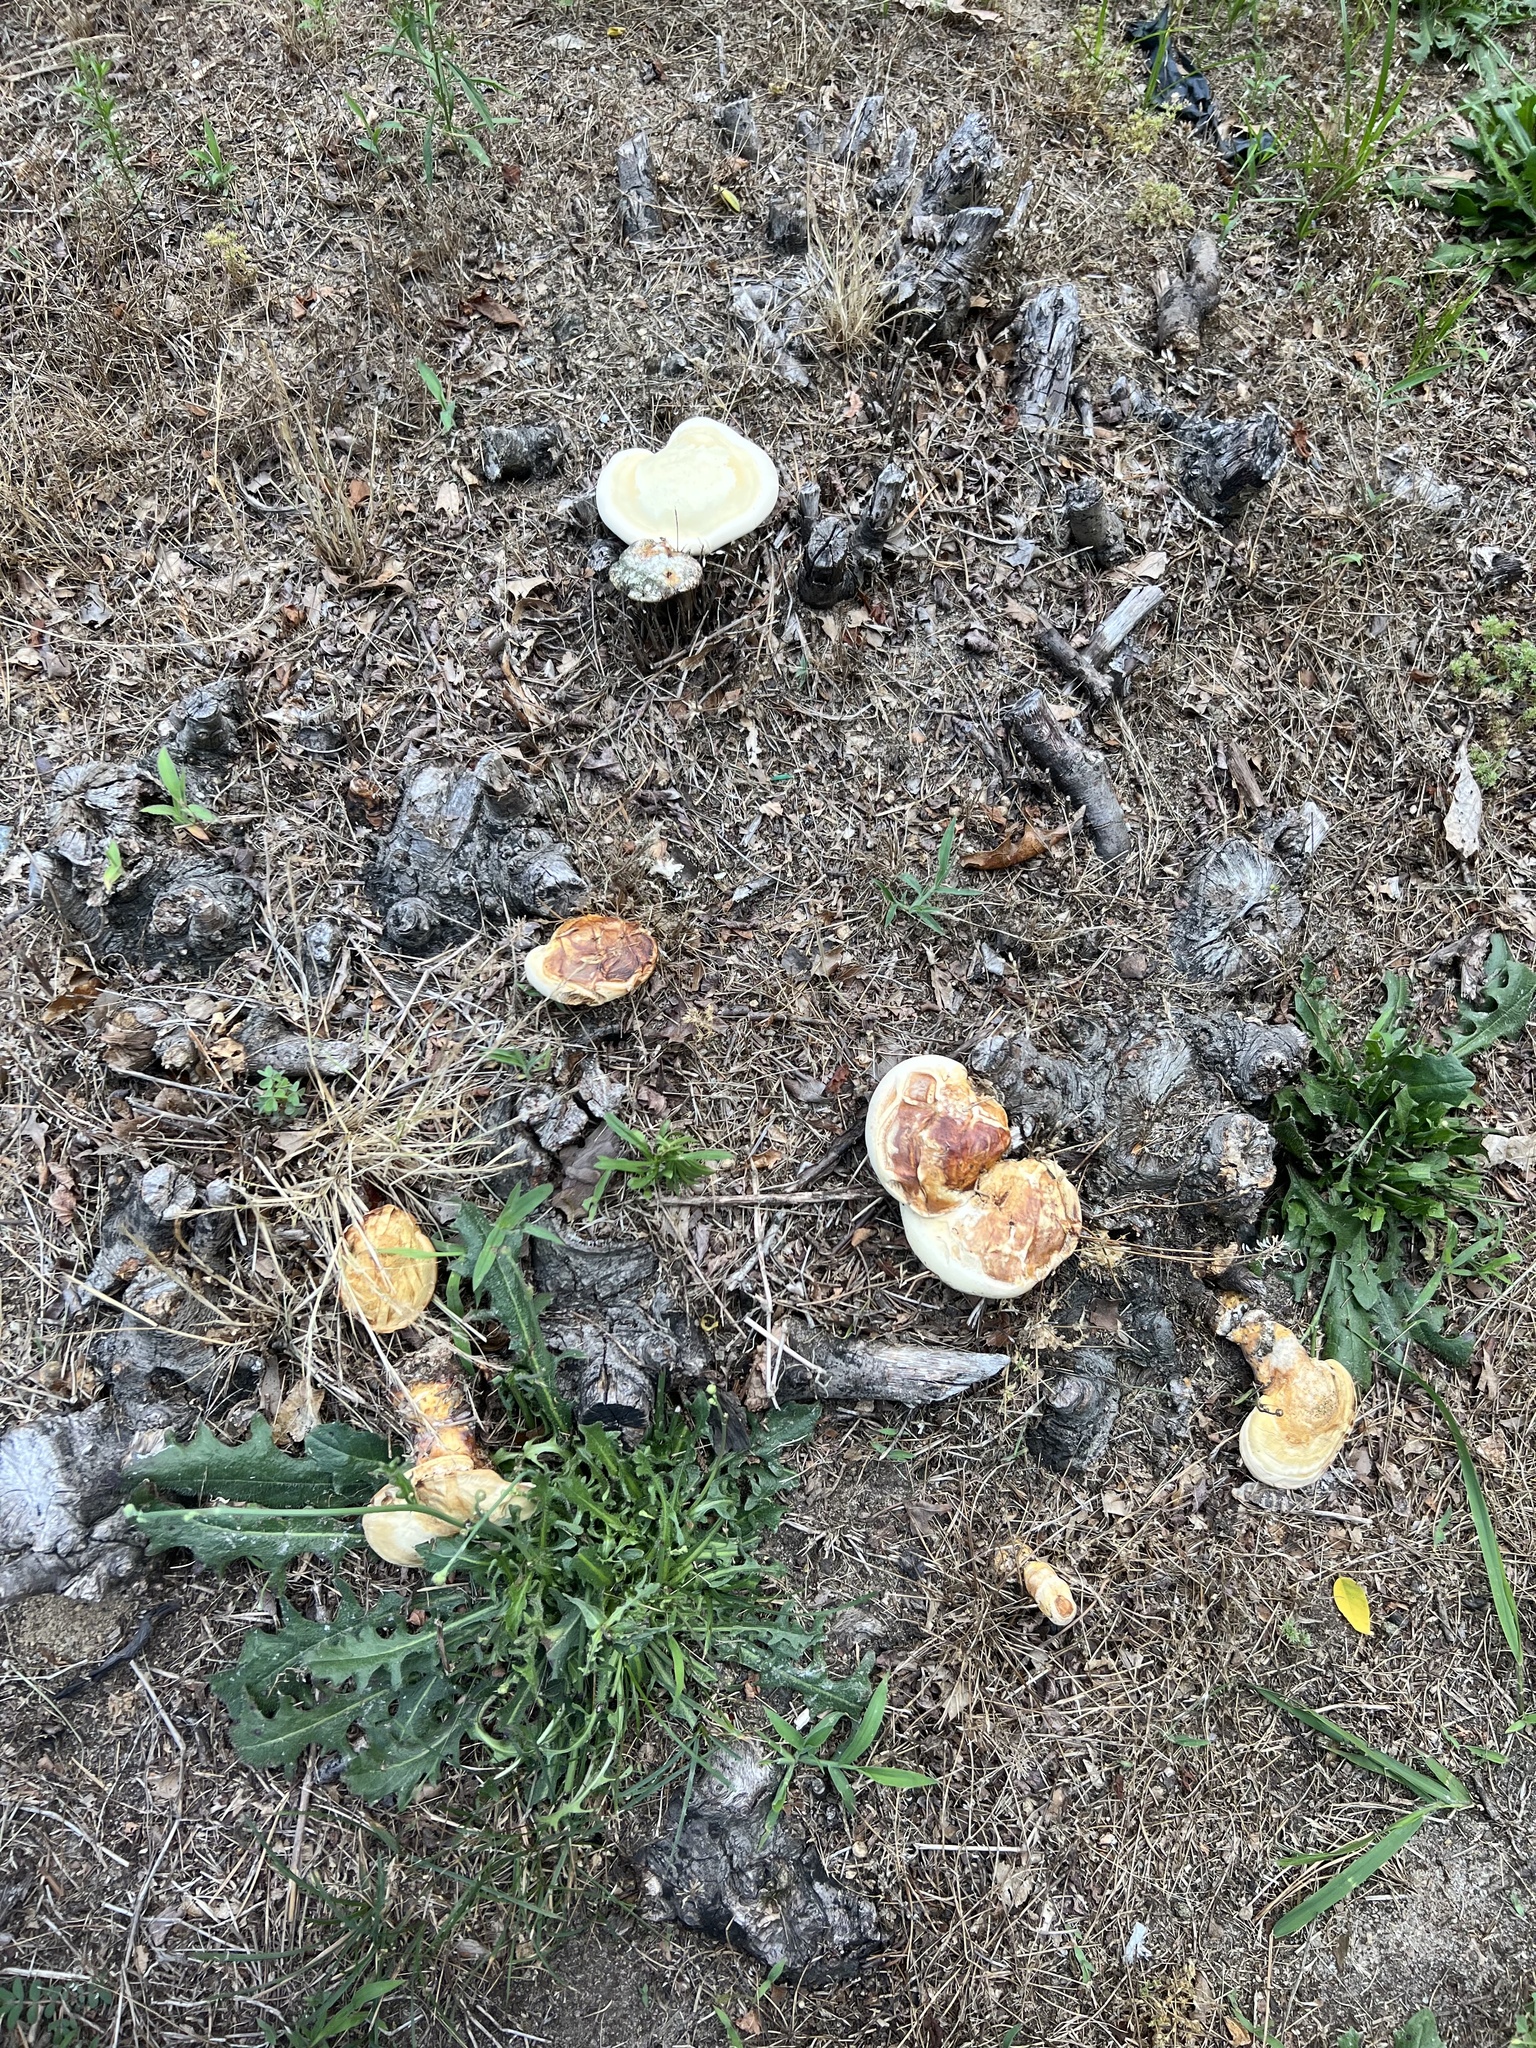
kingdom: Fungi
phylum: Basidiomycota
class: Agaricomycetes
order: Polyporales
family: Polyporaceae
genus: Ganoderma
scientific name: Ganoderma curtisii
